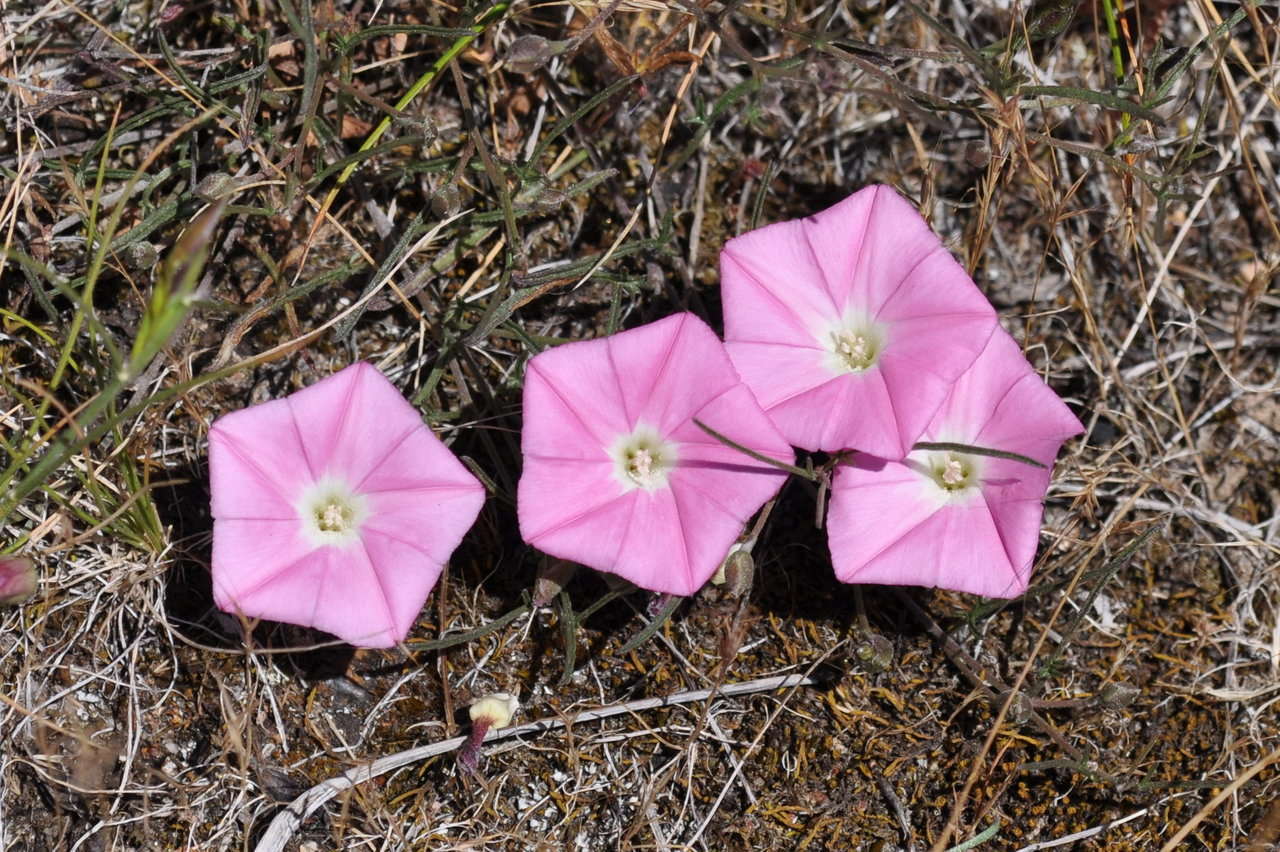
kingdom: Plantae
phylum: Tracheophyta
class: Magnoliopsida
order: Solanales
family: Convolvulaceae
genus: Convolvulus
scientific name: Convolvulus angustissimus
